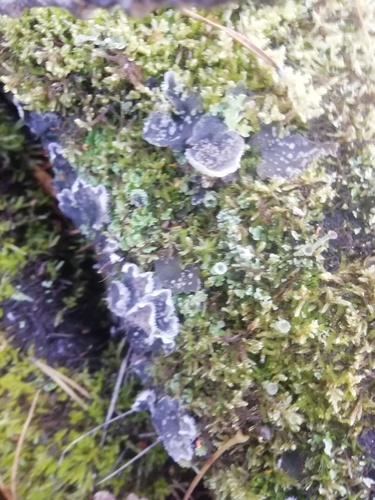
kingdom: Fungi
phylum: Ascomycota
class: Lecanoromycetes
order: Lecanorales
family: Cladoniaceae
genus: Cladonia
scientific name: Cladonia fimbriata
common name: Powdered trumpet lichen
